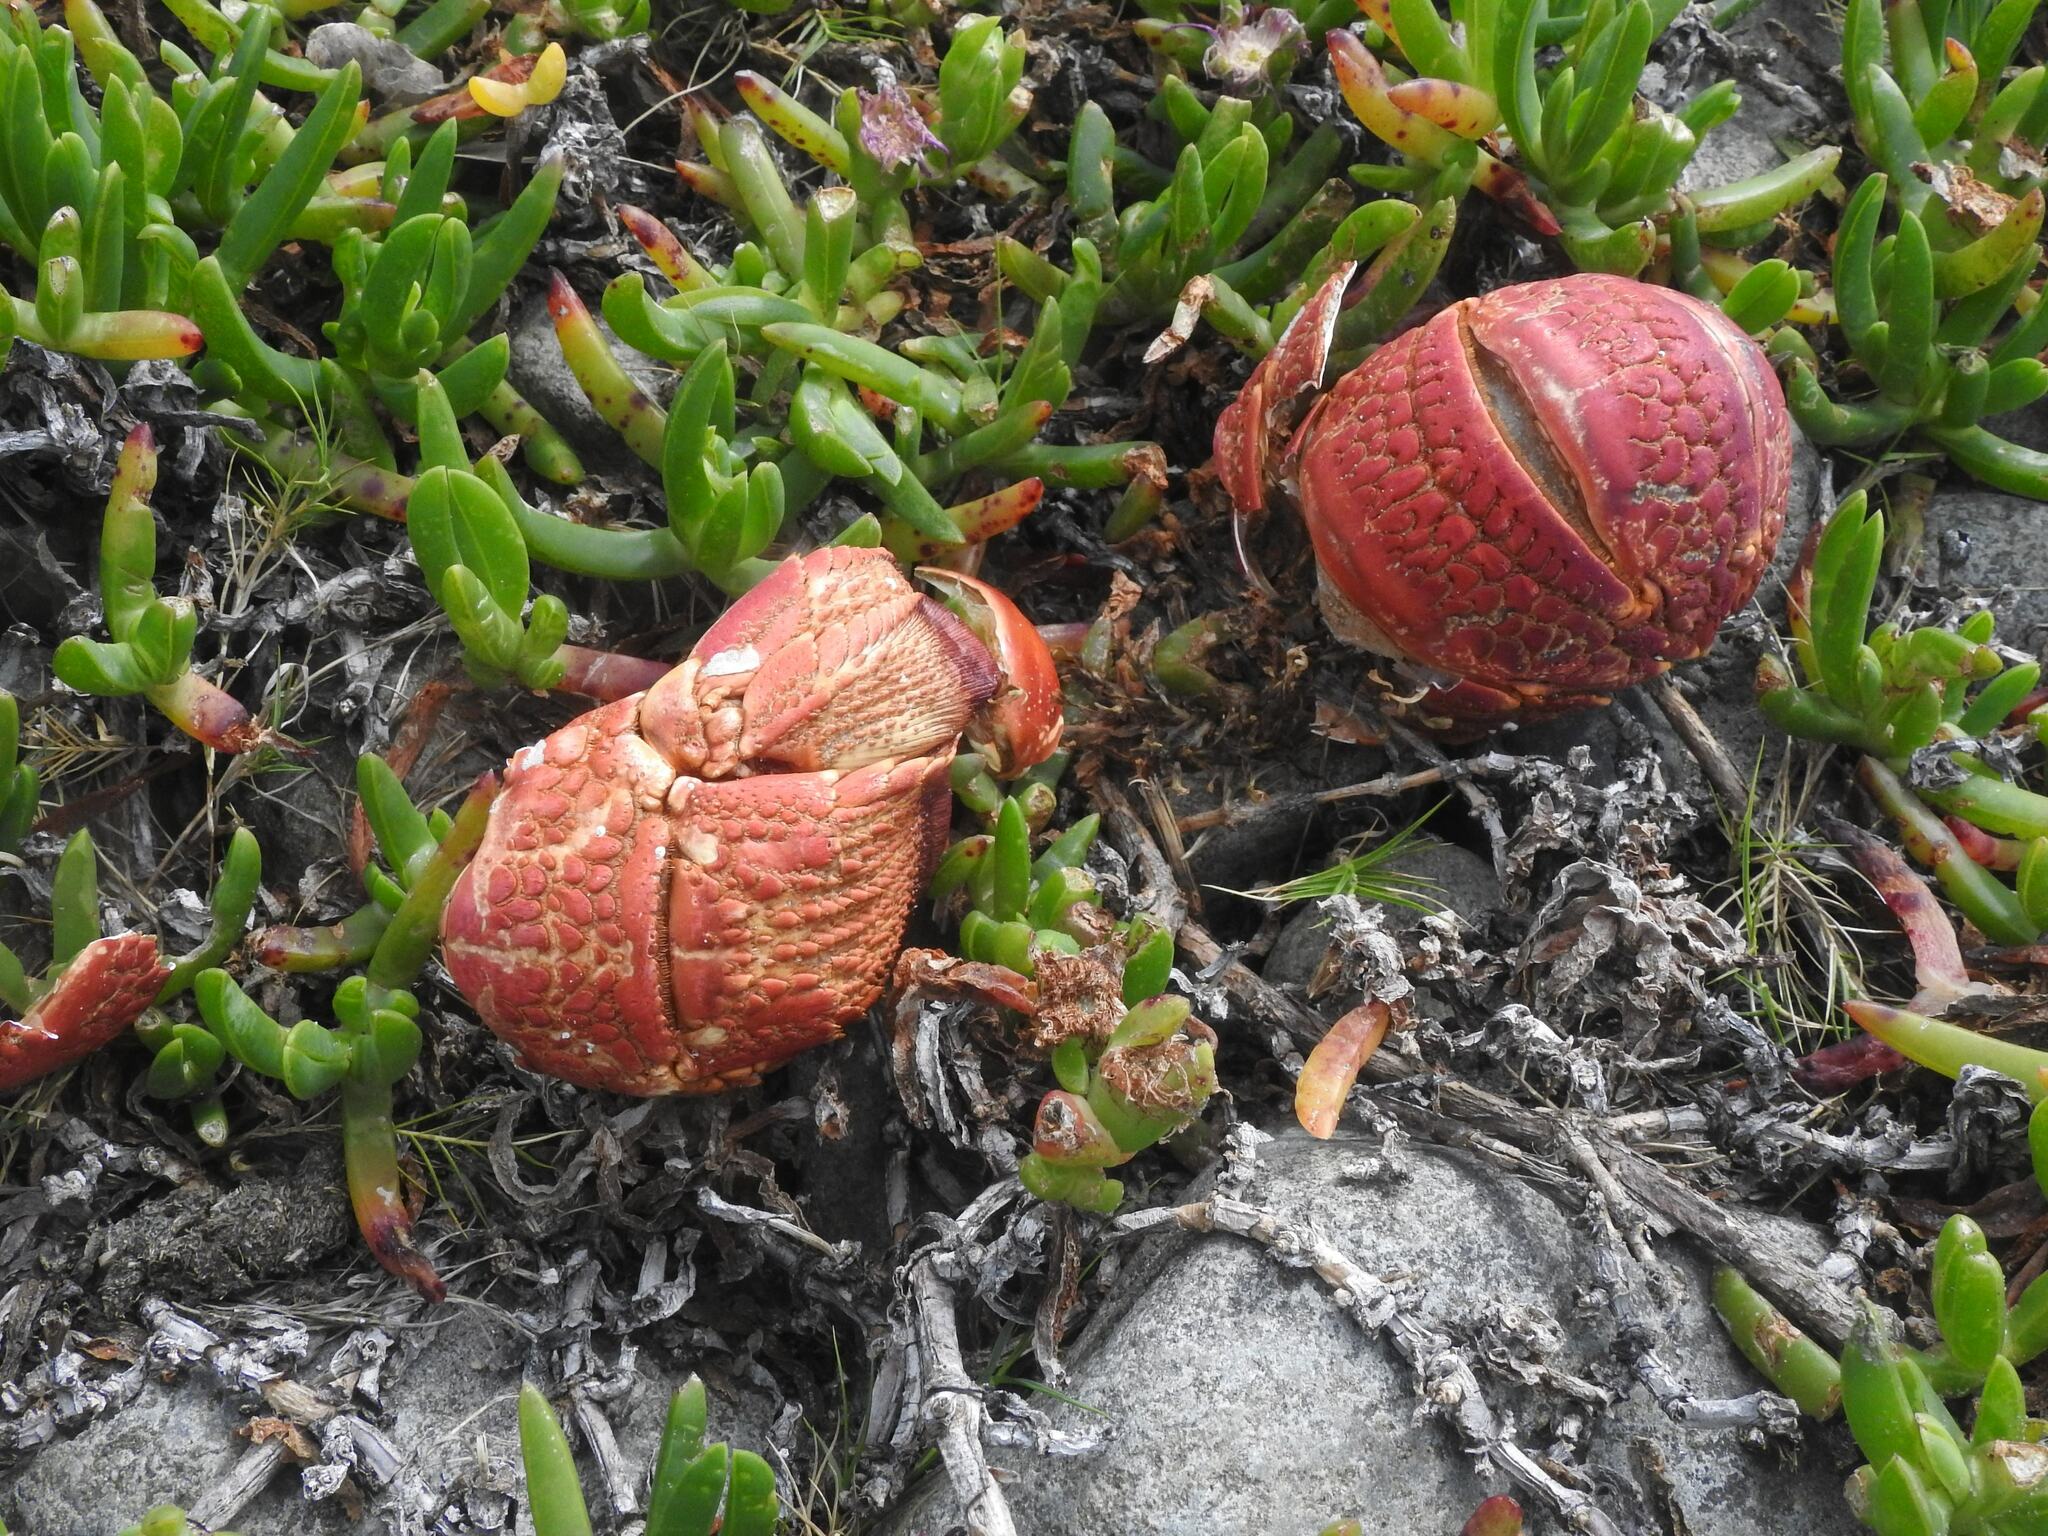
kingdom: Animalia
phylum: Arthropoda
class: Malacostraca
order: Decapoda
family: Palinuridae
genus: Jasus
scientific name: Jasus edwardsii
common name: Red rock lobster
